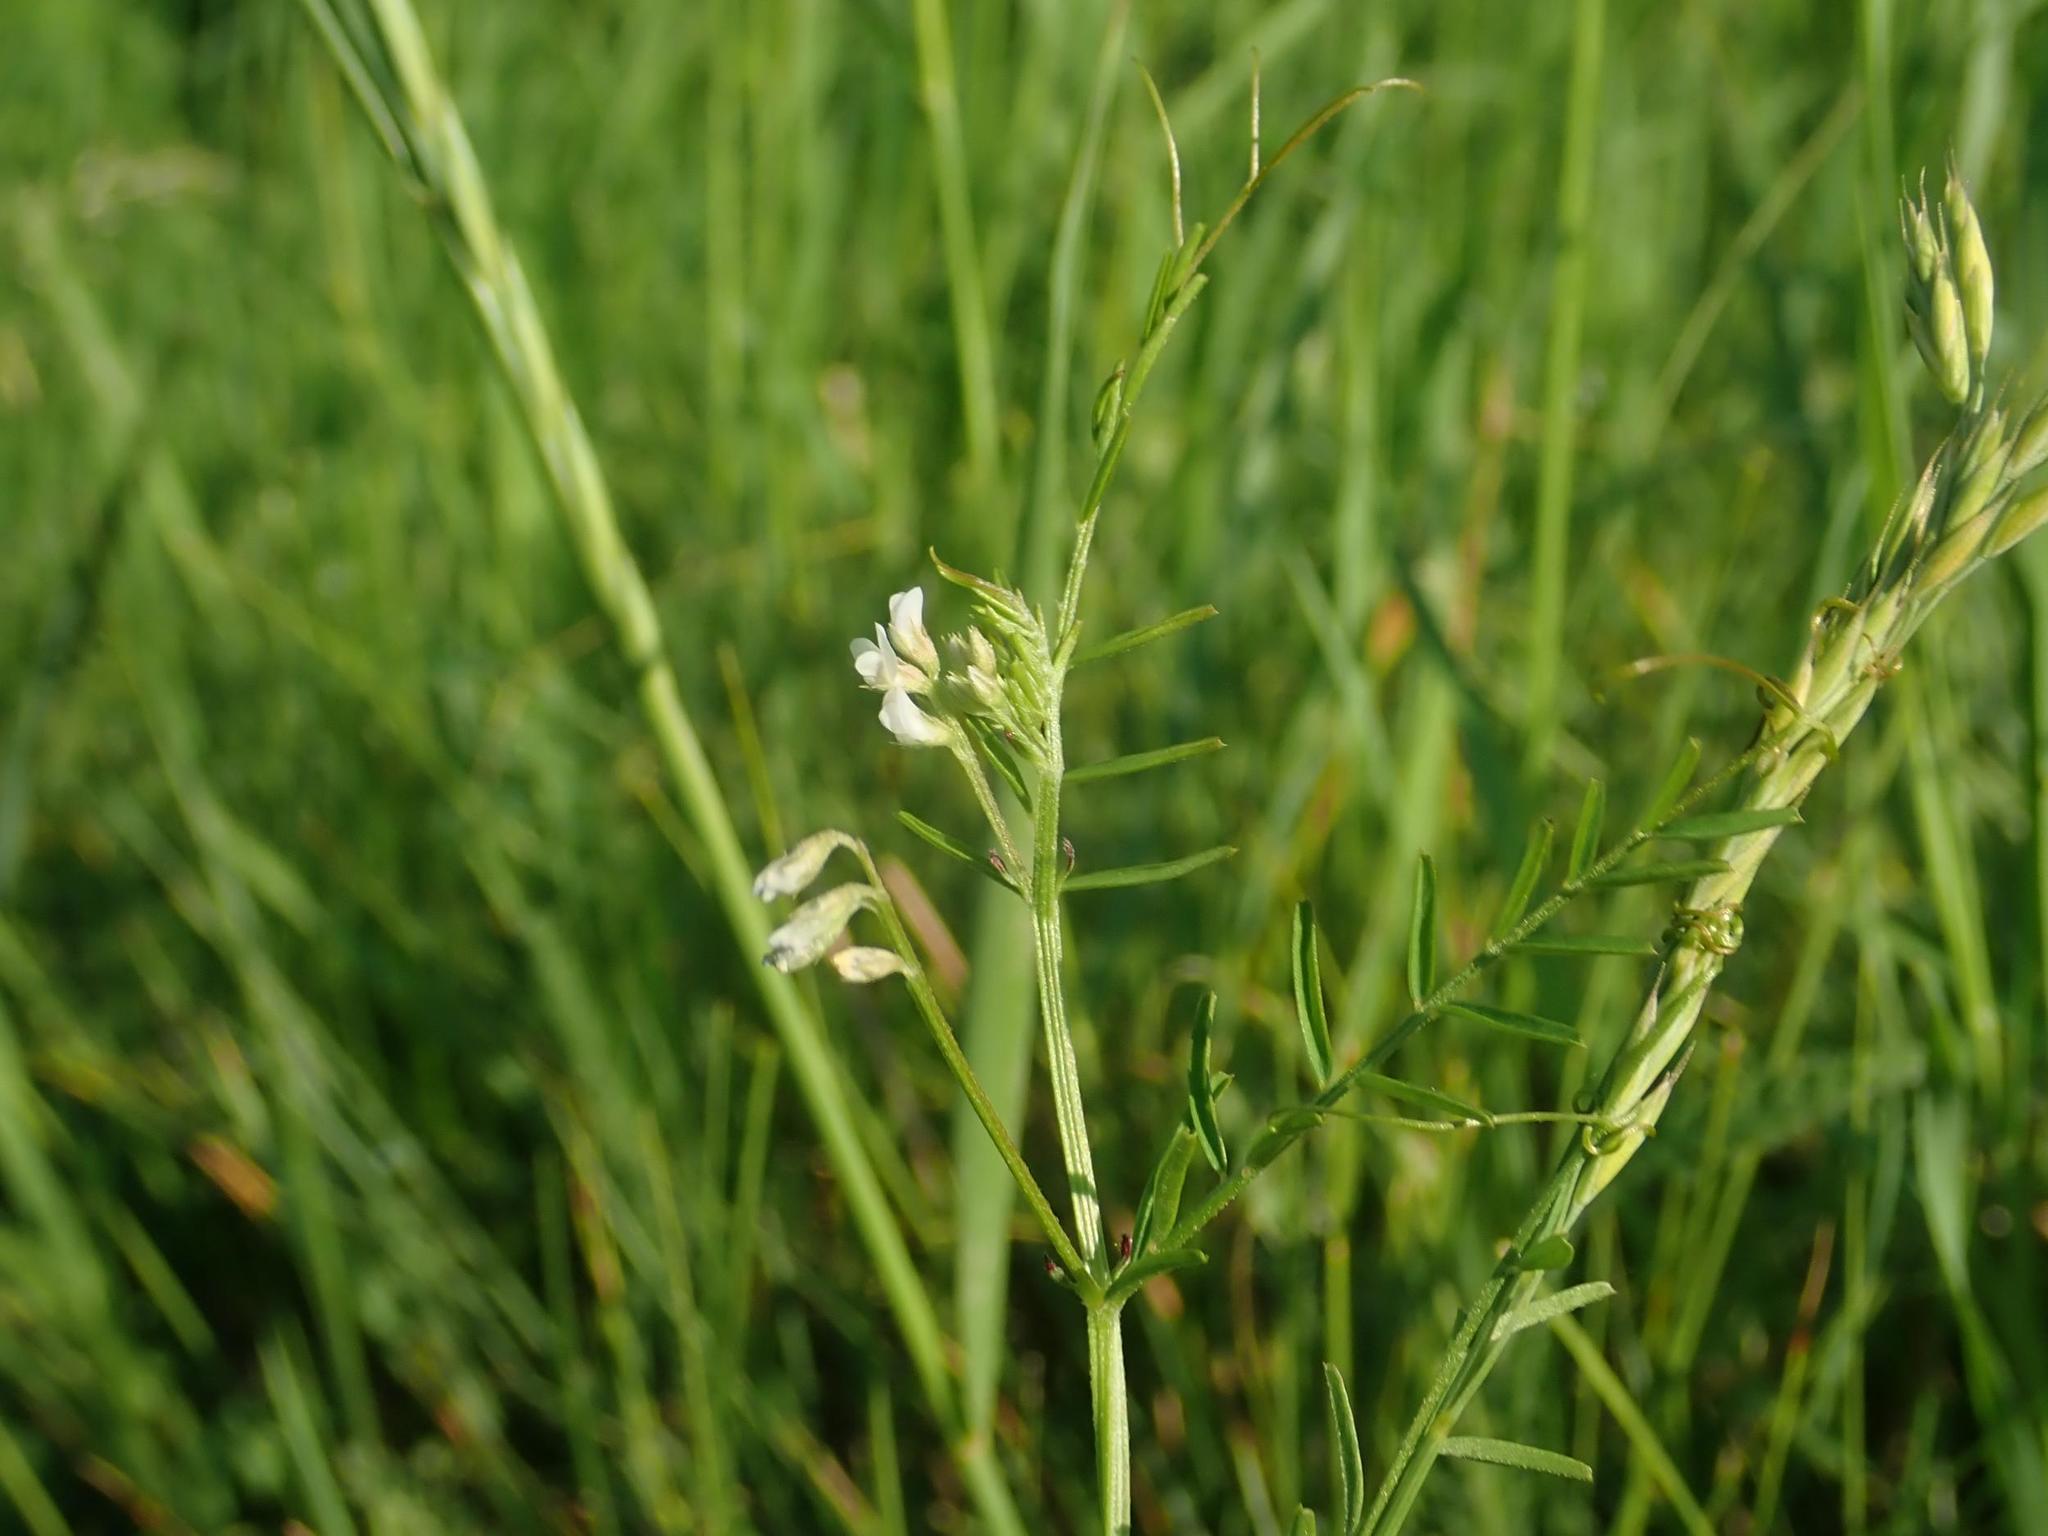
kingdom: Plantae
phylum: Tracheophyta
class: Magnoliopsida
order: Fabales
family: Fabaceae
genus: Vicia
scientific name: Vicia hirsuta
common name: Tiny vetch
